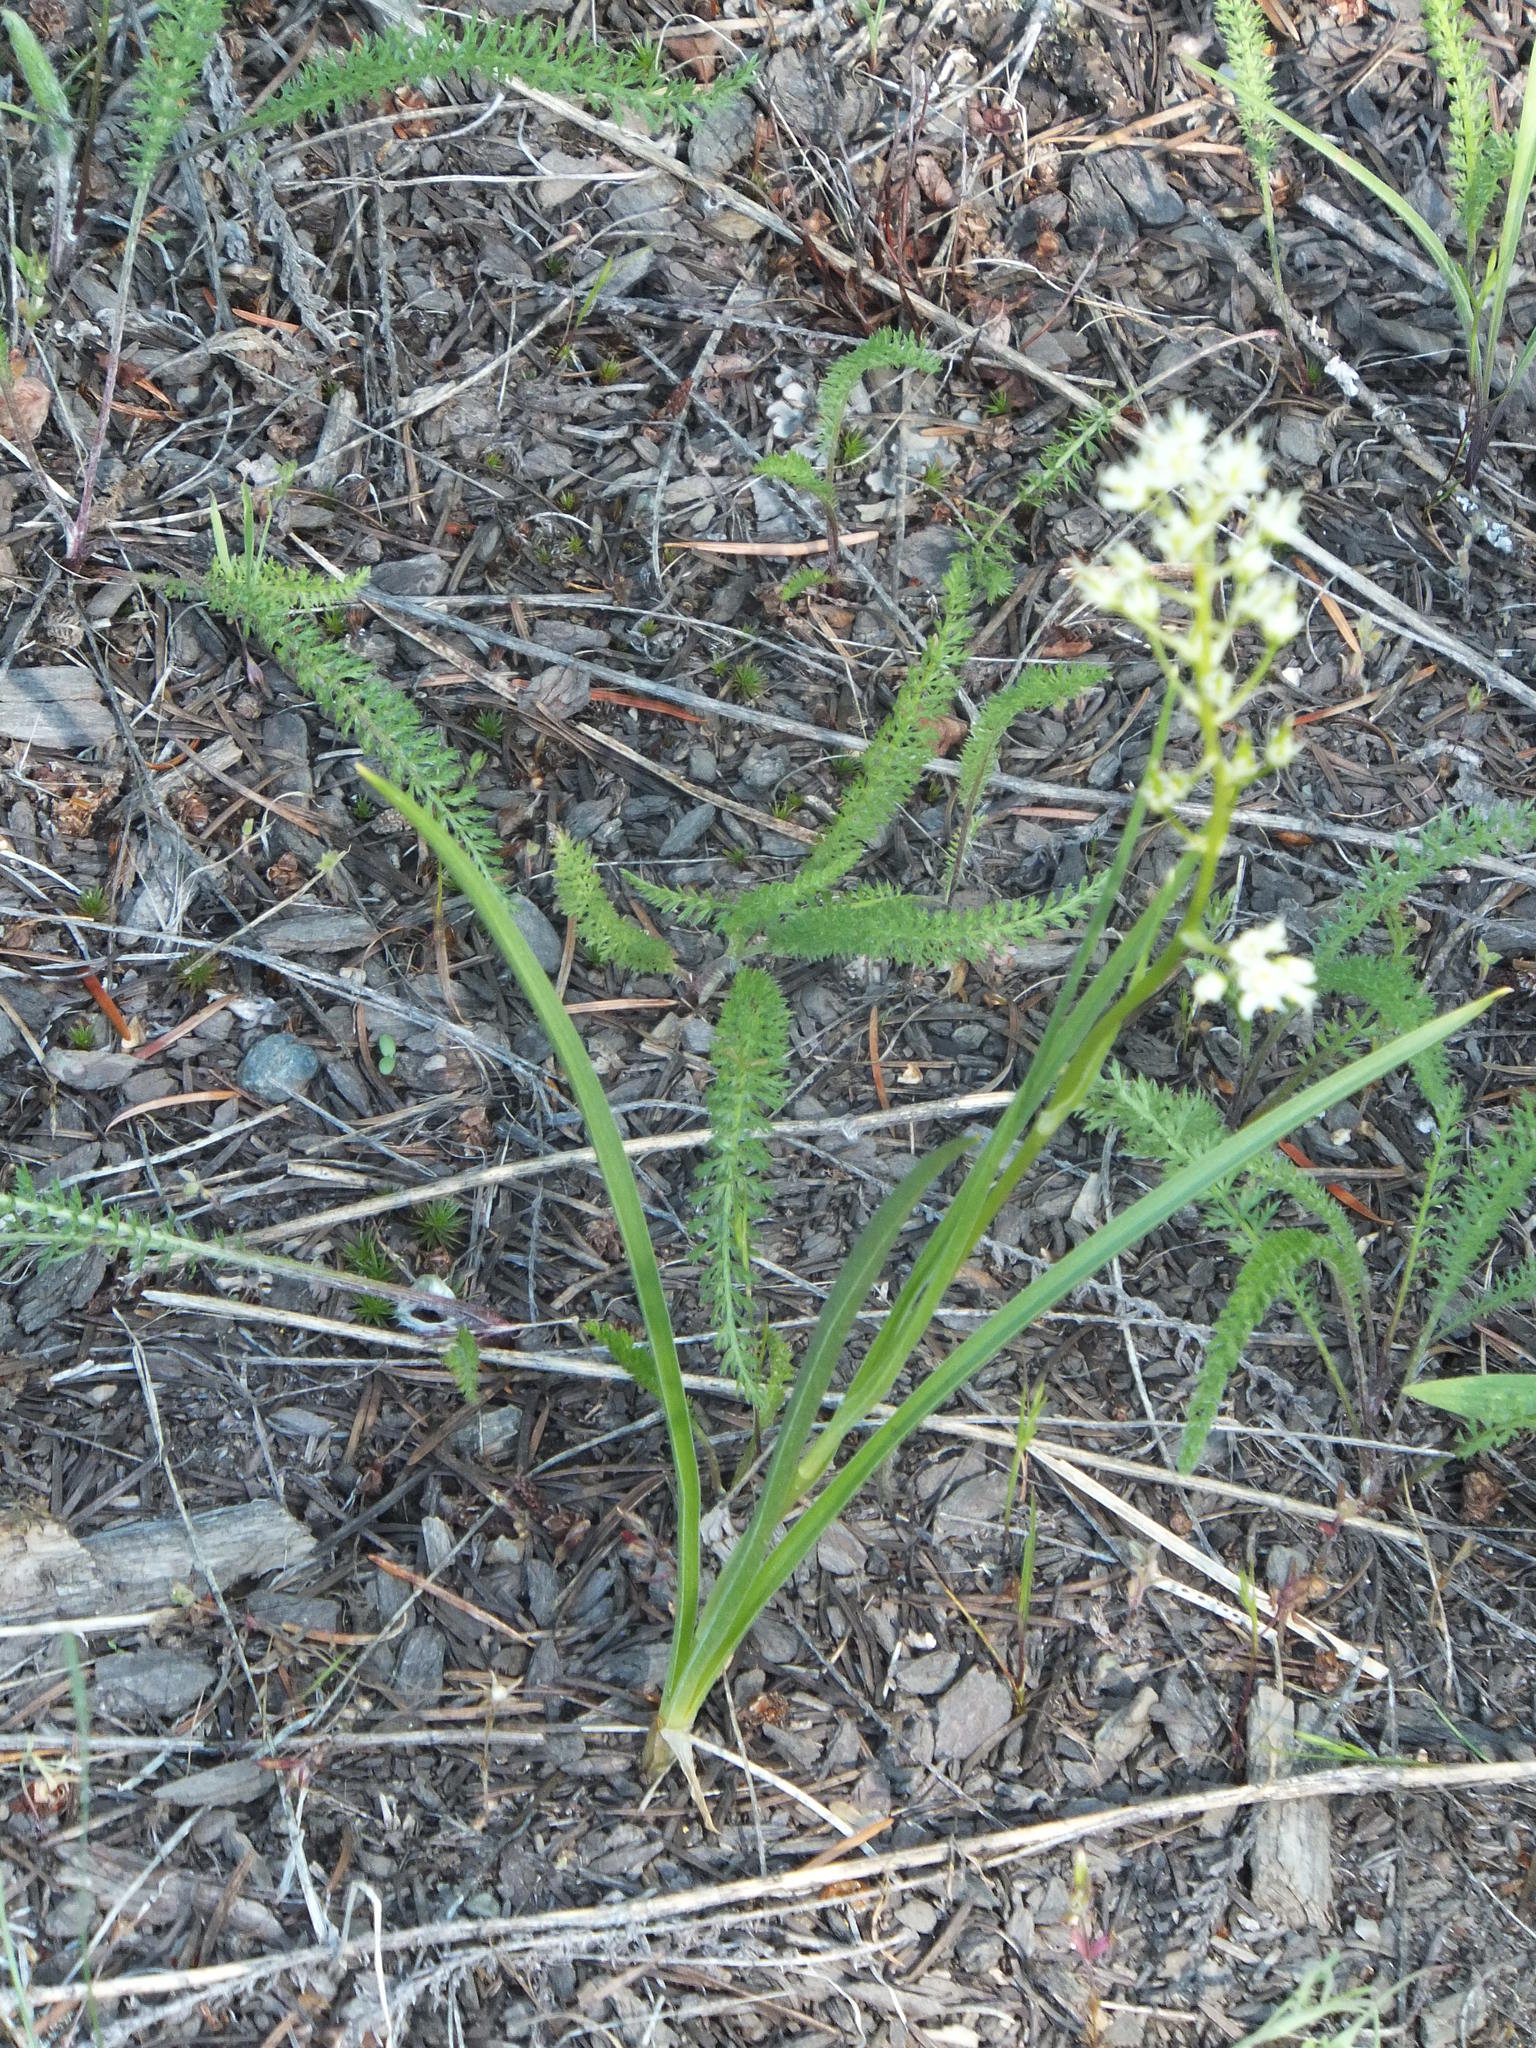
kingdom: Plantae
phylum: Tracheophyta
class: Liliopsida
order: Liliales
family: Melanthiaceae
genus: Toxicoscordion
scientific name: Toxicoscordion venenosum
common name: Meadow death camas
